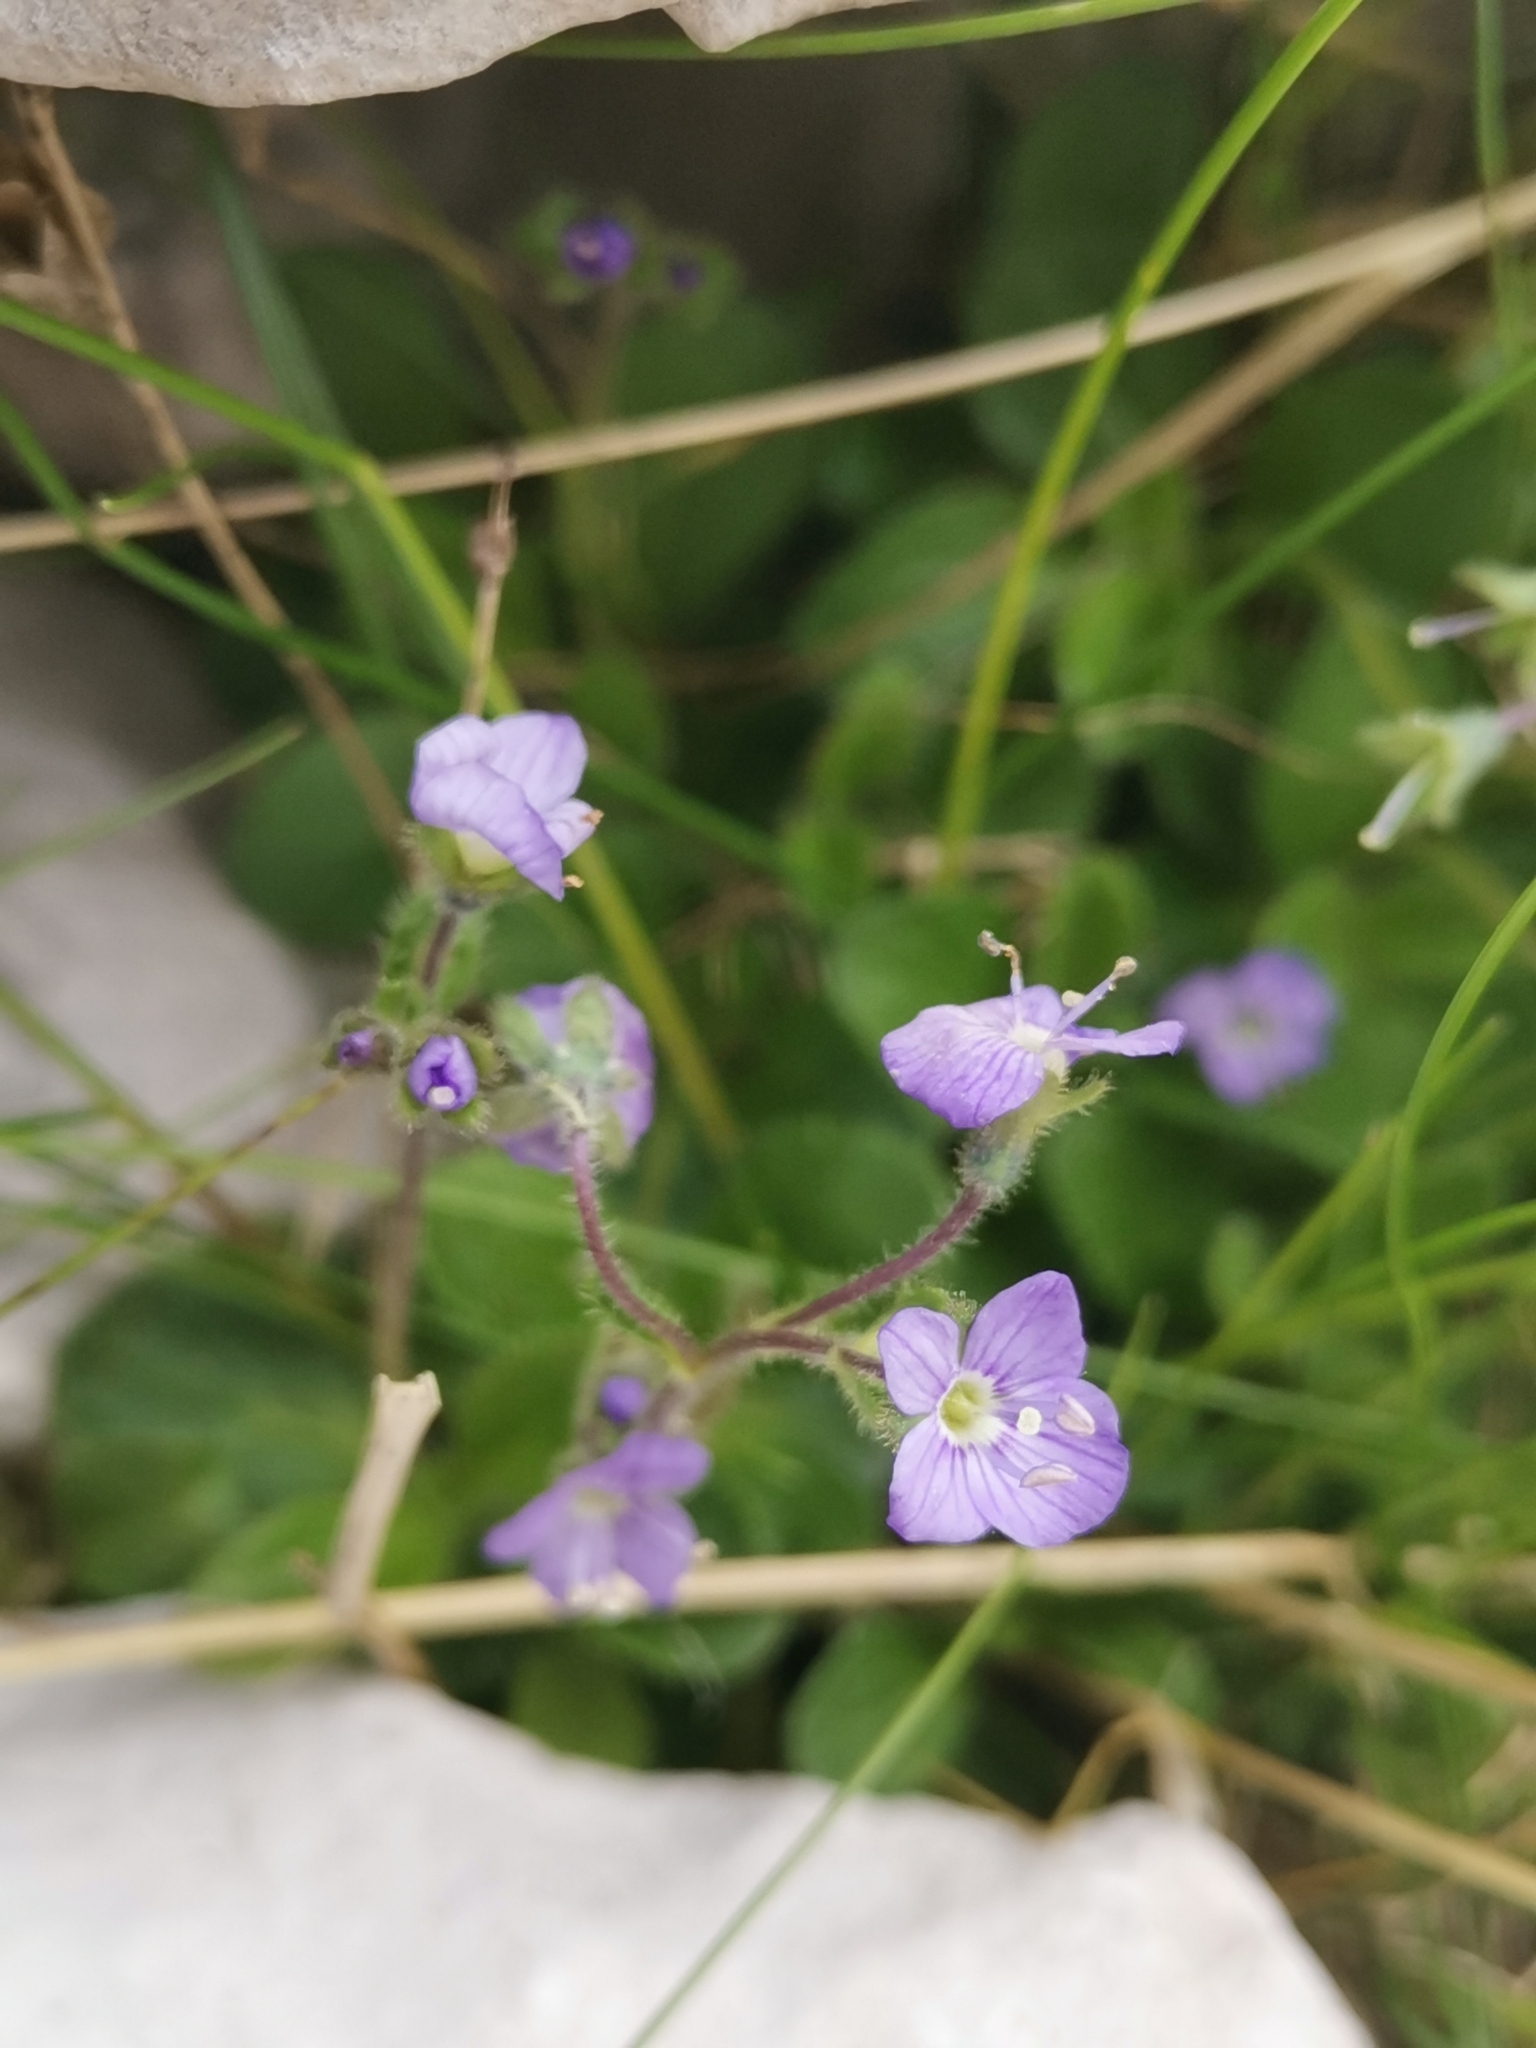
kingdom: Plantae
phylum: Tracheophyta
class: Magnoliopsida
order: Lamiales
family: Plantaginaceae
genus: Veronica
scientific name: Veronica aphylla
